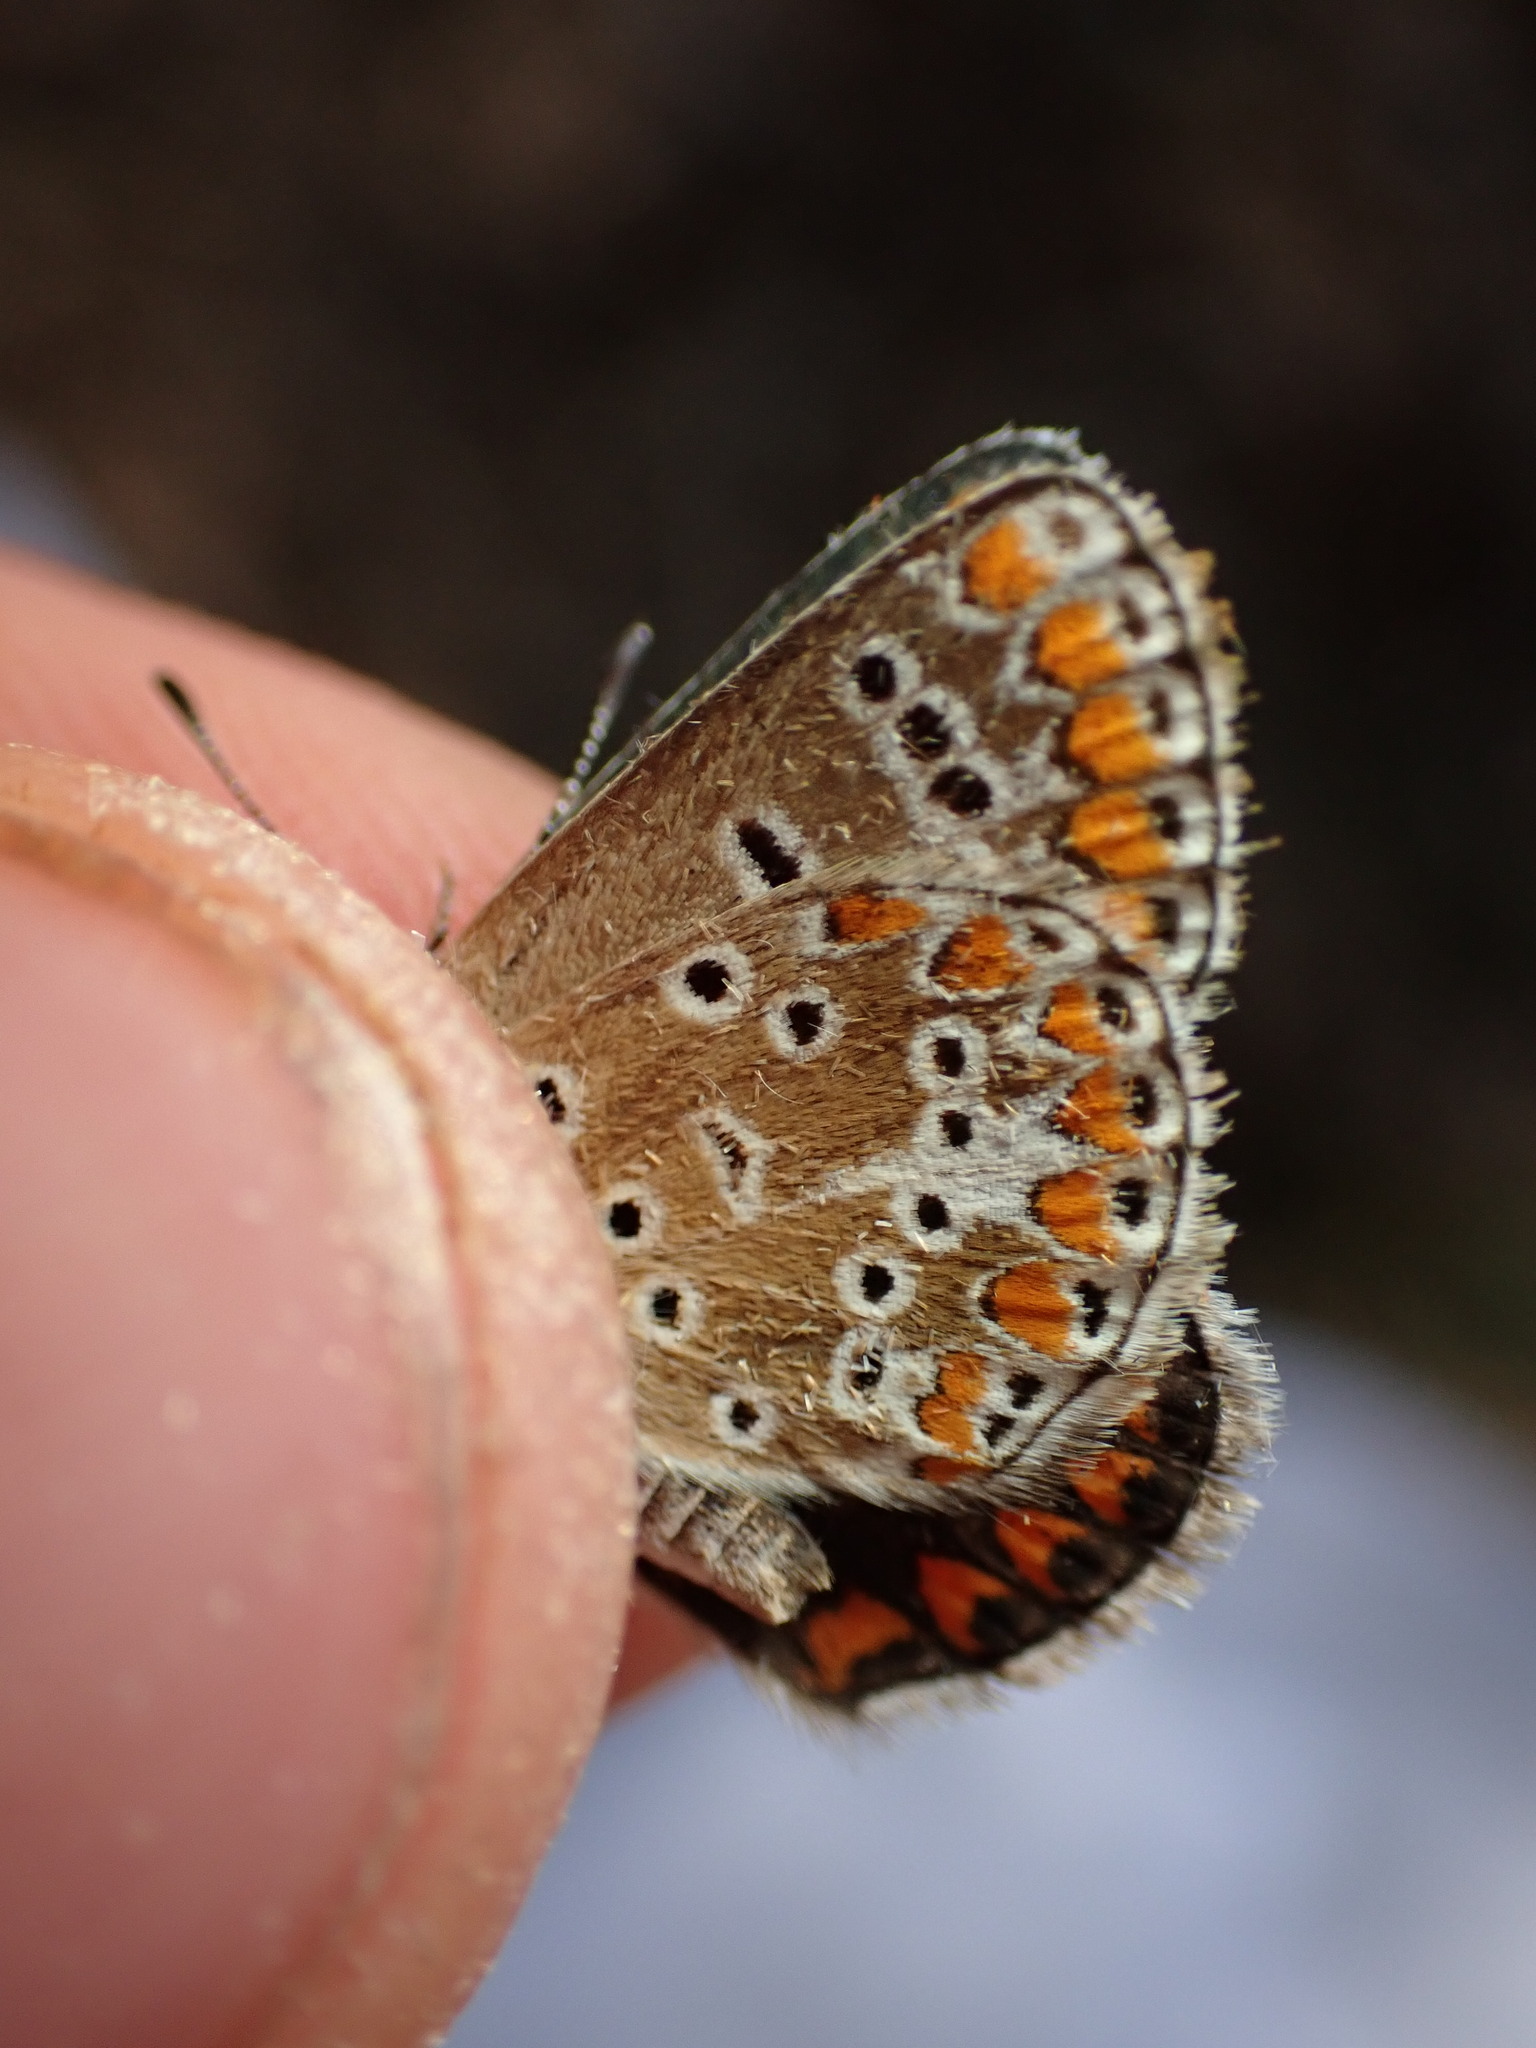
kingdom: Animalia
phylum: Arthropoda
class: Insecta
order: Lepidoptera
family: Lycaenidae
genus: Aricia
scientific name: Aricia agestis
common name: Brown argus
